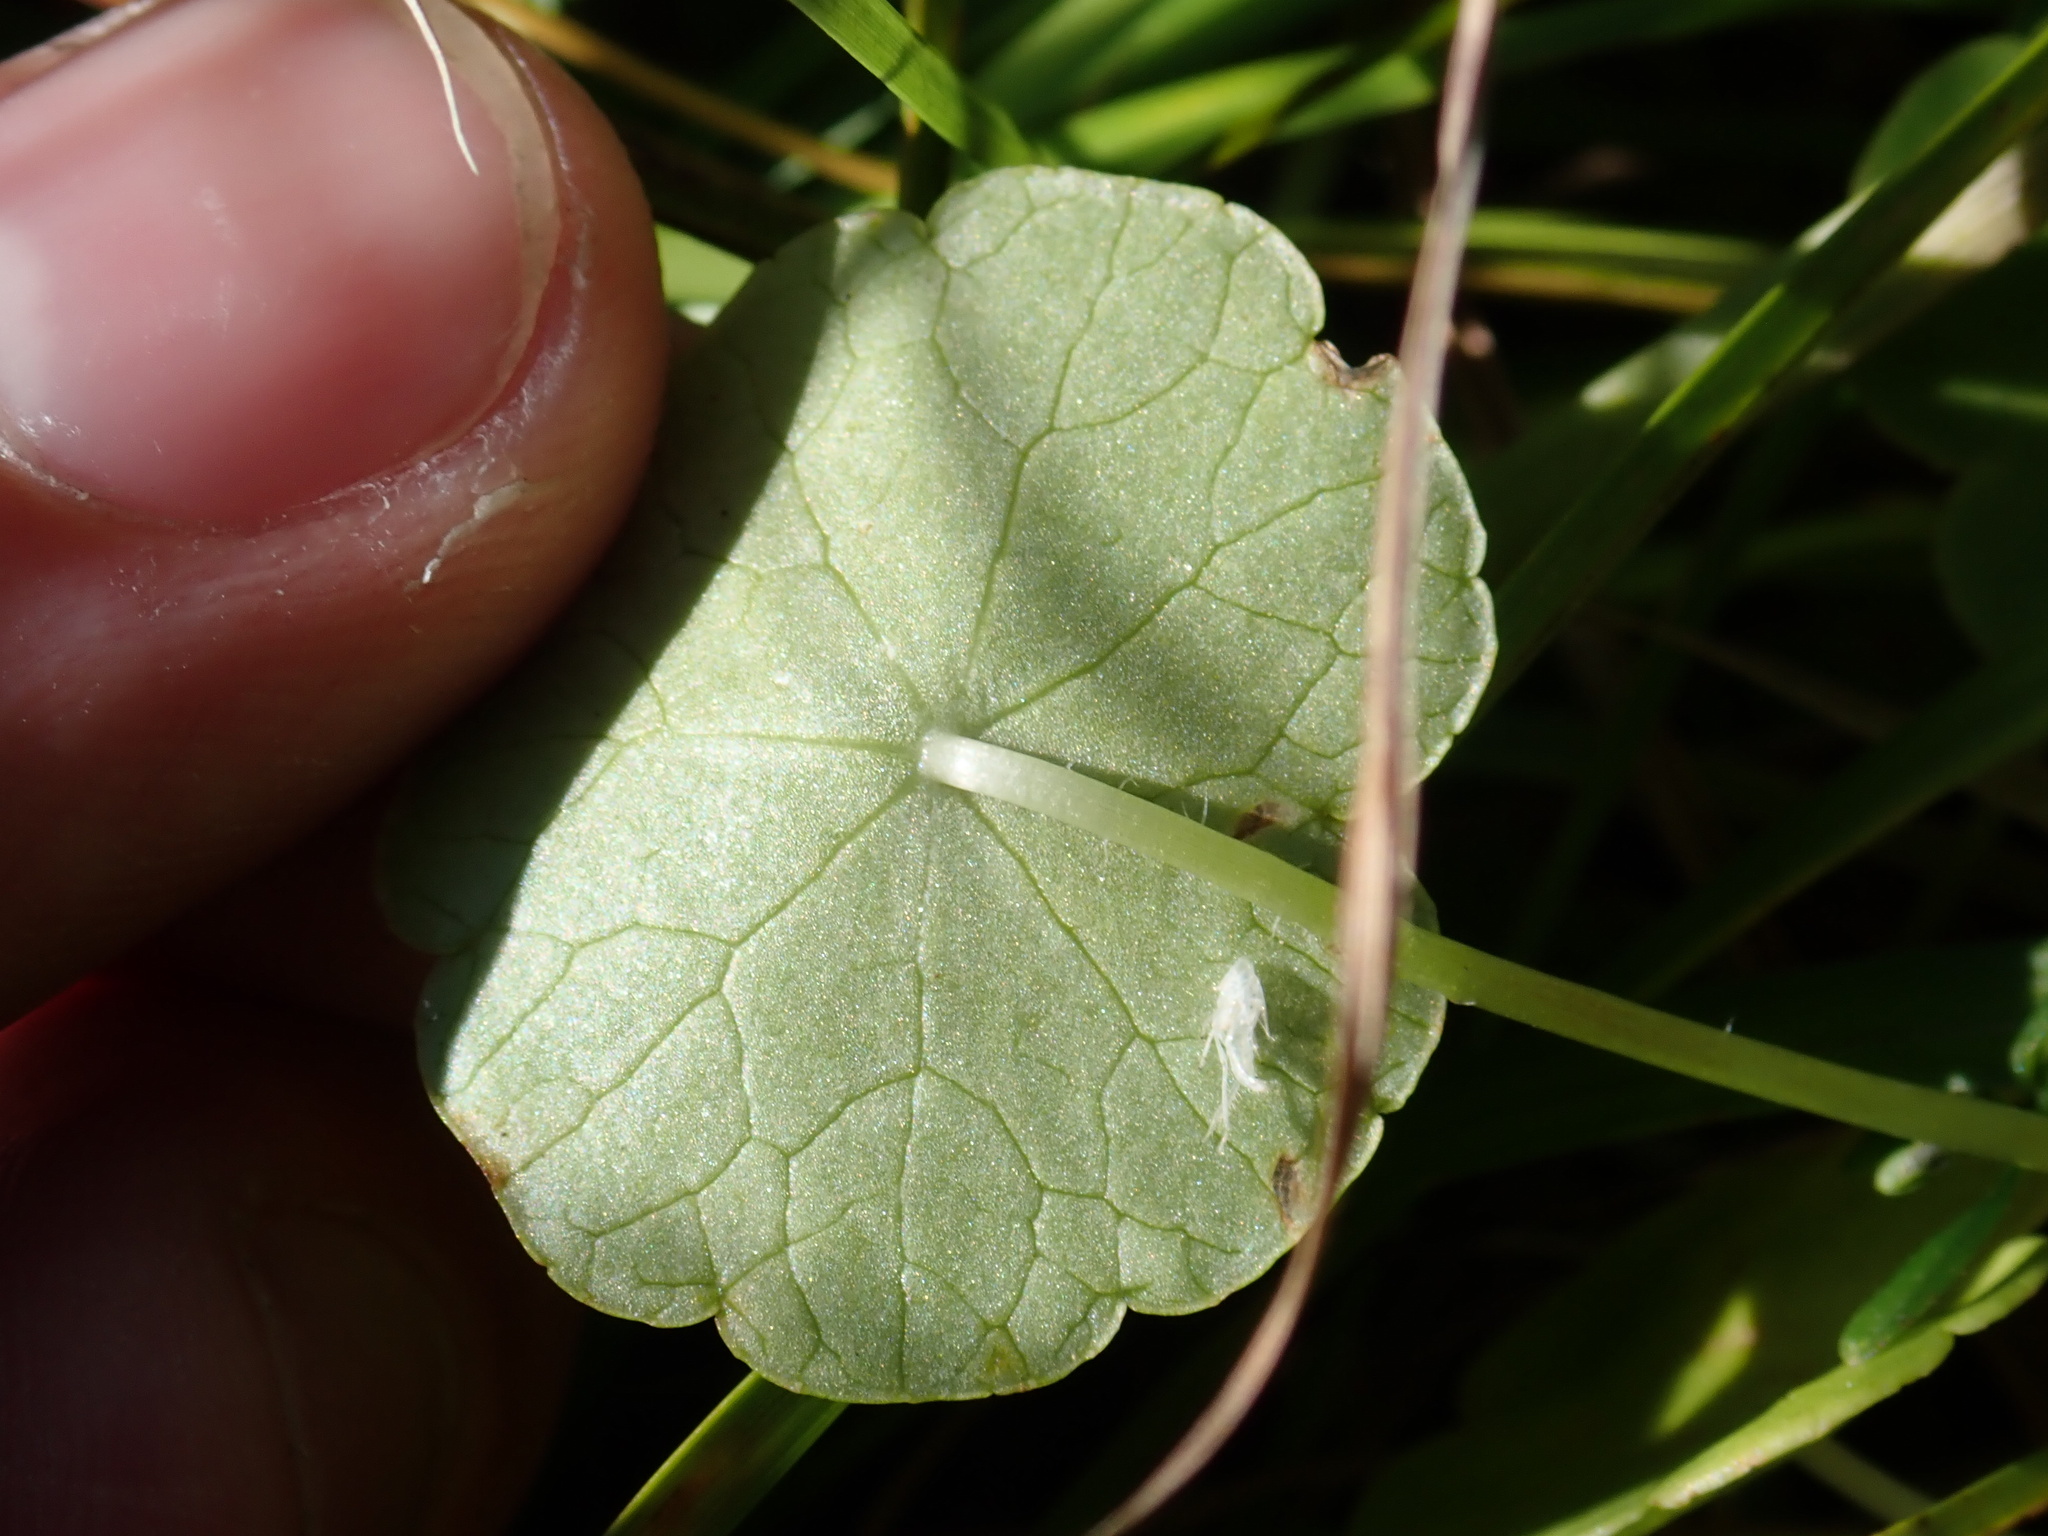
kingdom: Plantae
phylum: Tracheophyta
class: Magnoliopsida
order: Apiales
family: Araliaceae
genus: Hydrocotyle
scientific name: Hydrocotyle vulgaris
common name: Marsh pennywort
